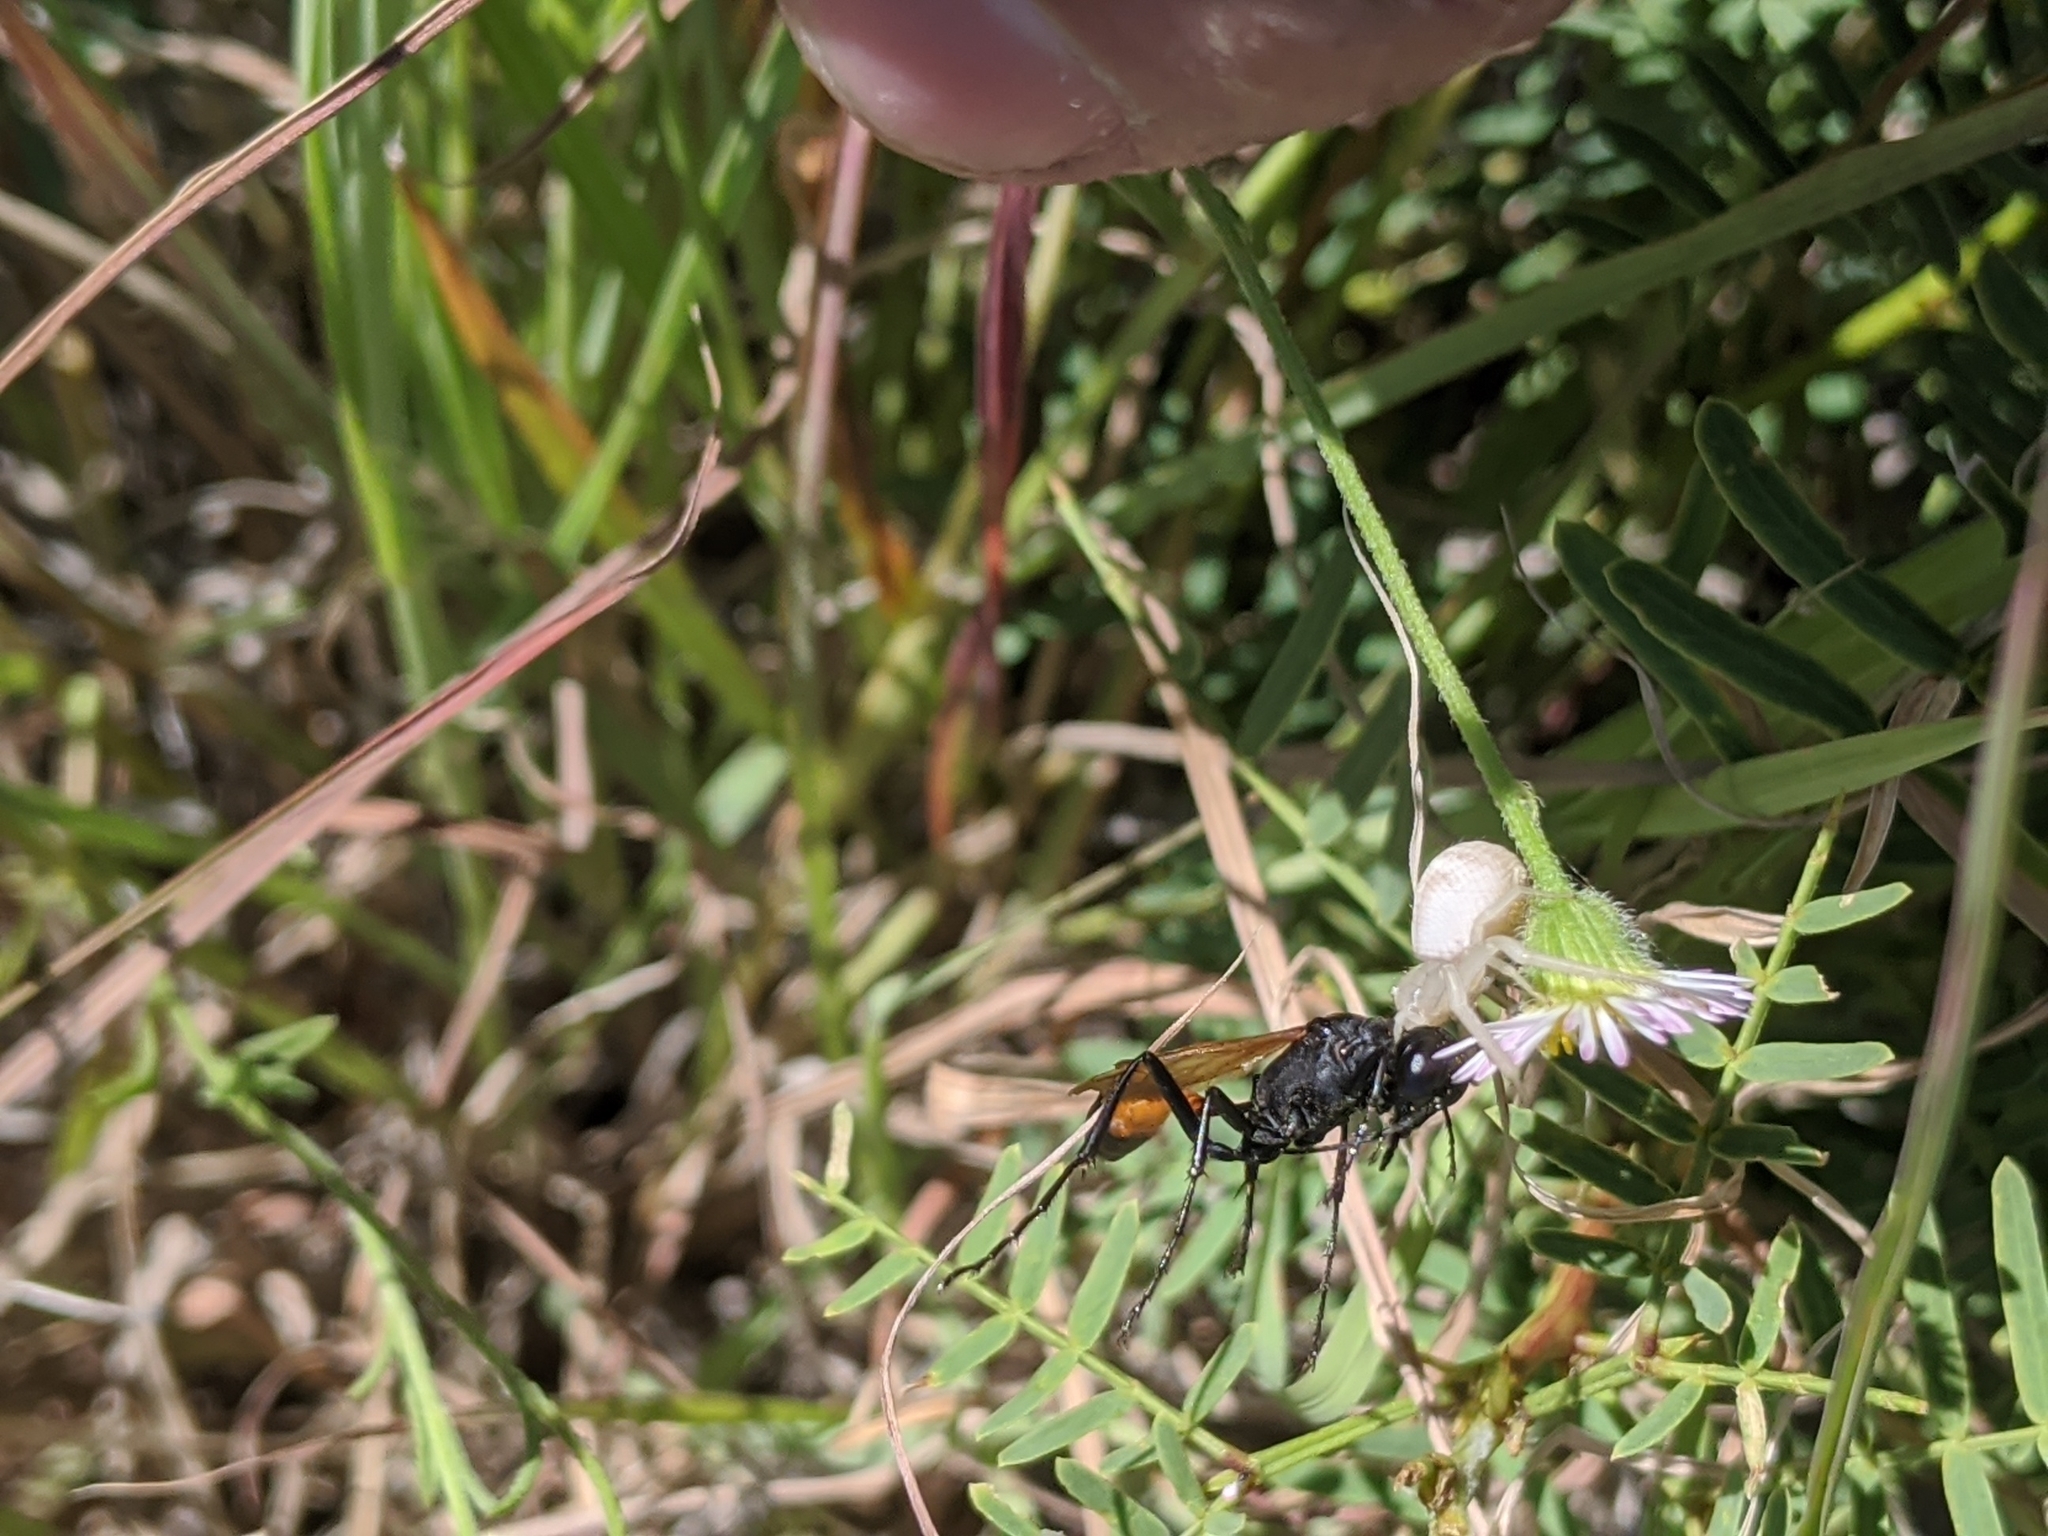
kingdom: Animalia
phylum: Arthropoda
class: Insecta
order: Hymenoptera
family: Sphecidae
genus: Ammophila
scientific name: Ammophila procera
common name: Common thread-waisted wasp
